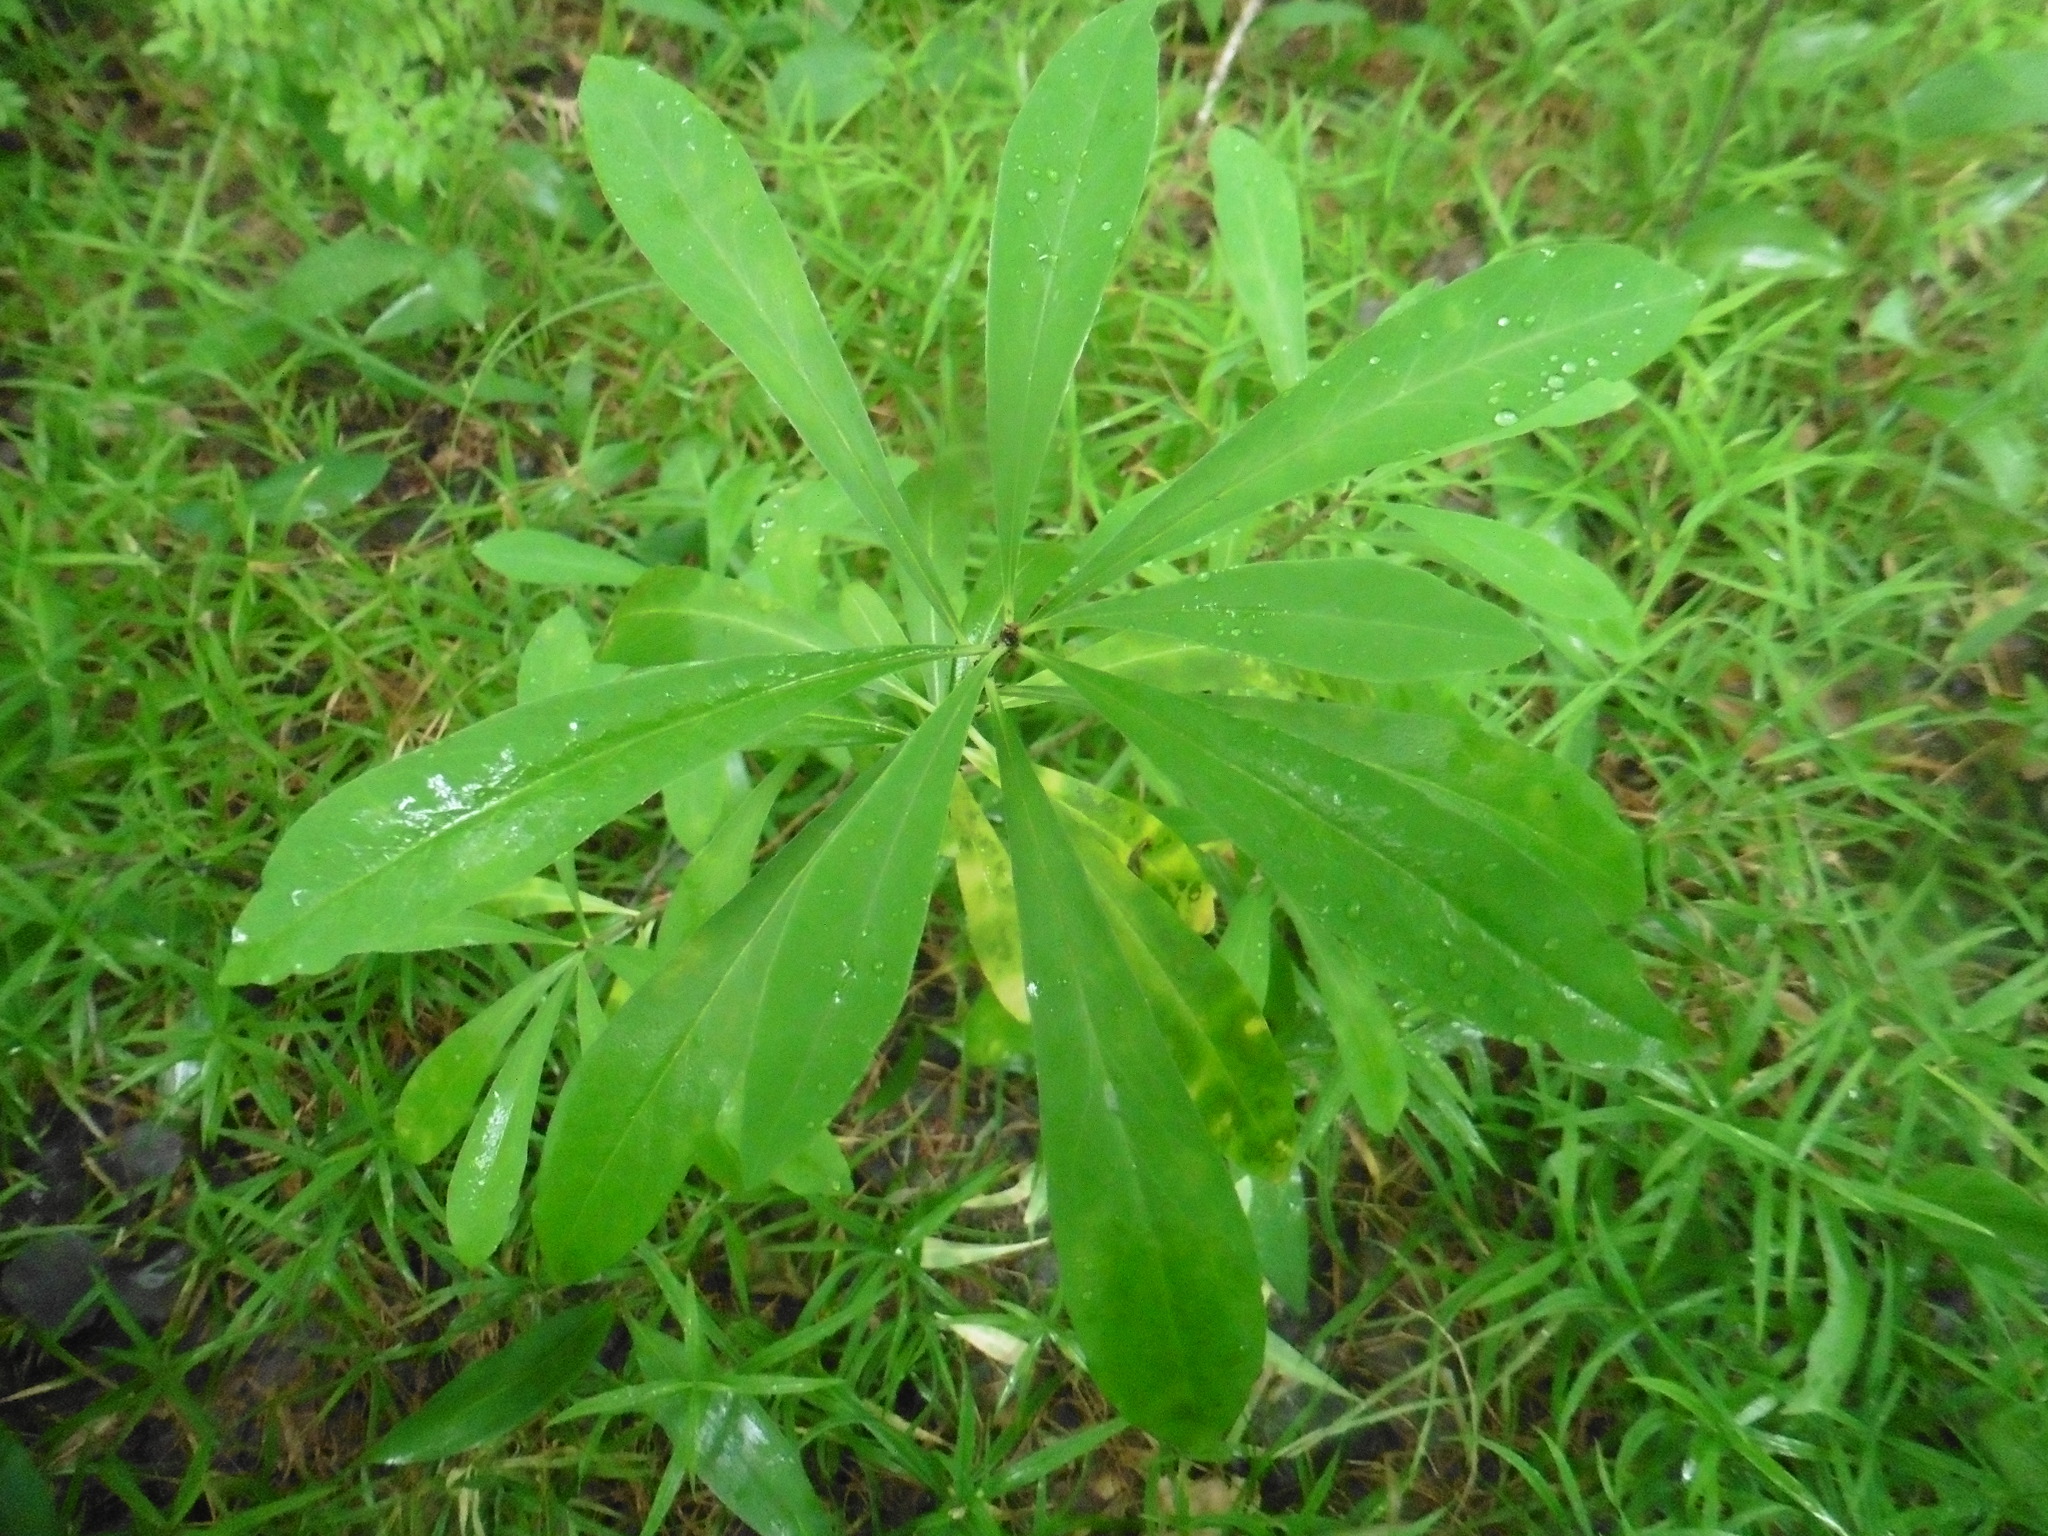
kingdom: Plantae
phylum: Tracheophyta
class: Magnoliopsida
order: Malvales
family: Thymelaeaceae
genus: Daphne
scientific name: Daphne mezereum
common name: Mezereon
